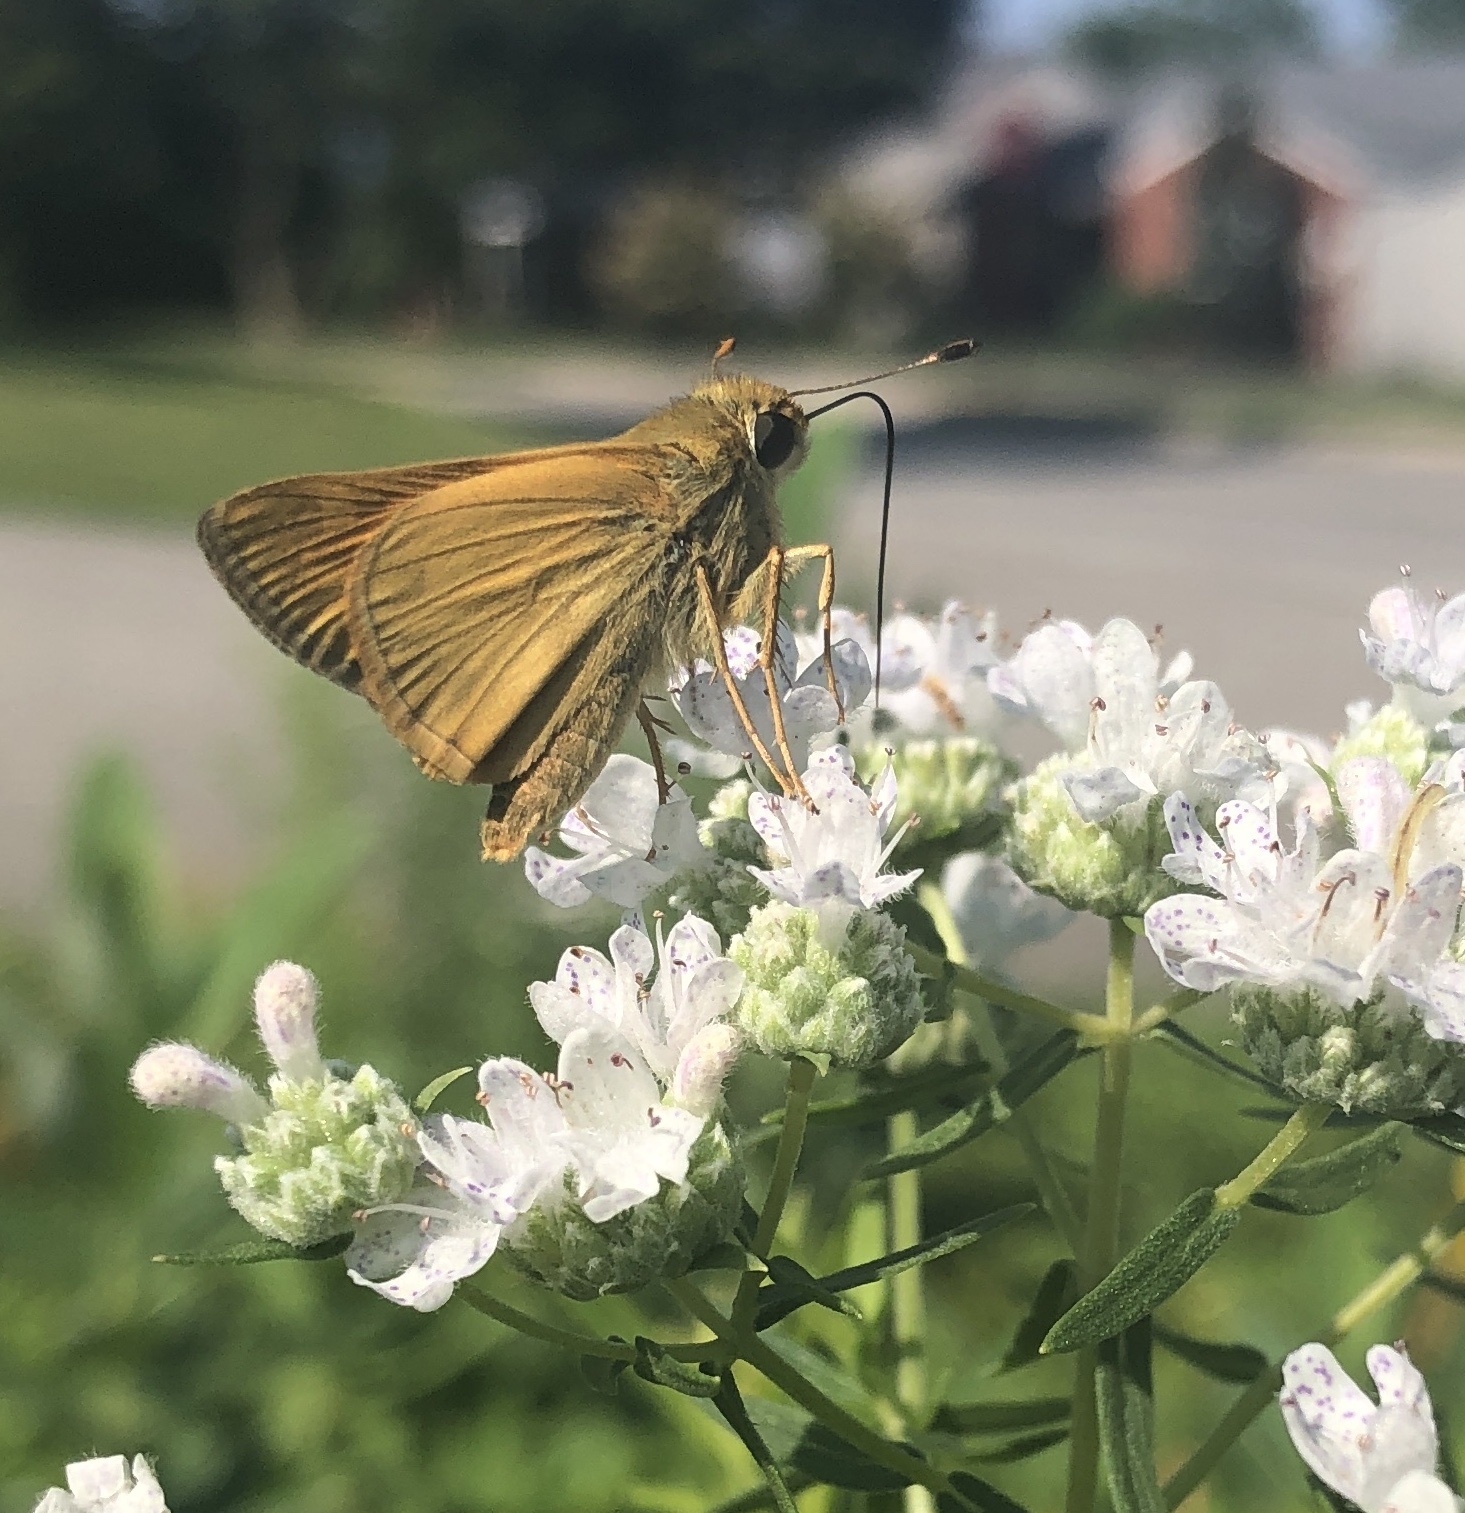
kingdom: Animalia
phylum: Arthropoda
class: Insecta
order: Lepidoptera
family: Hesperiidae
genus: Atalopedes
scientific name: Atalopedes
